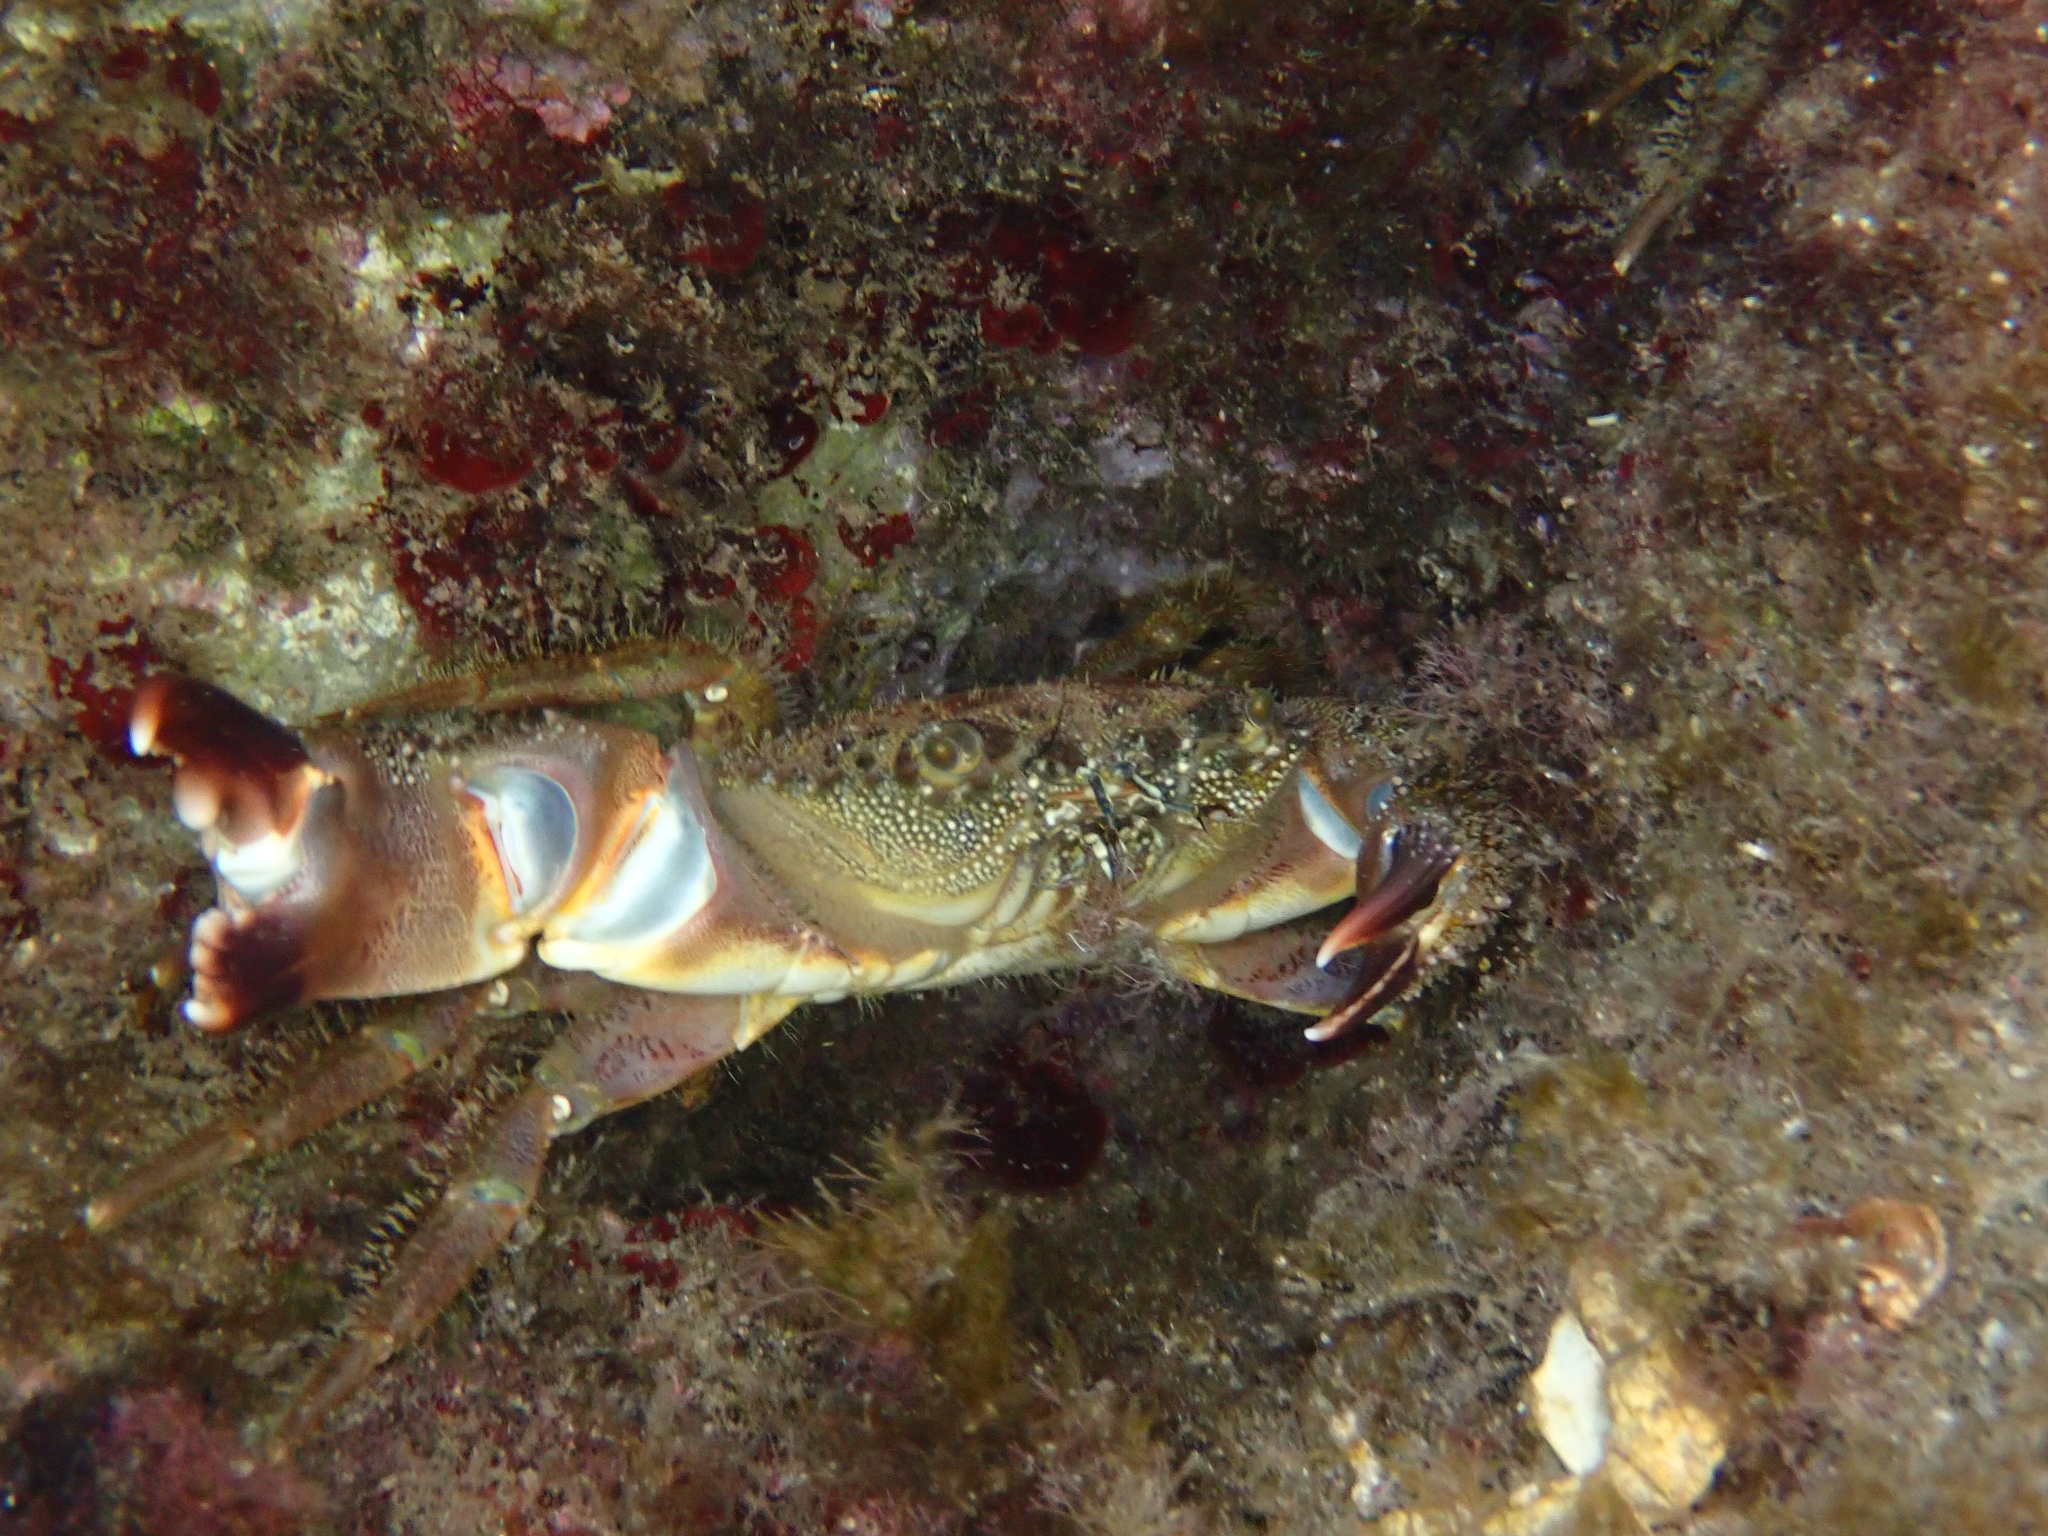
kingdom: Animalia
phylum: Arthropoda
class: Malacostraca
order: Decapoda
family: Eriphiidae
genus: Eriphia
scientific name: Eriphia verrucosa
